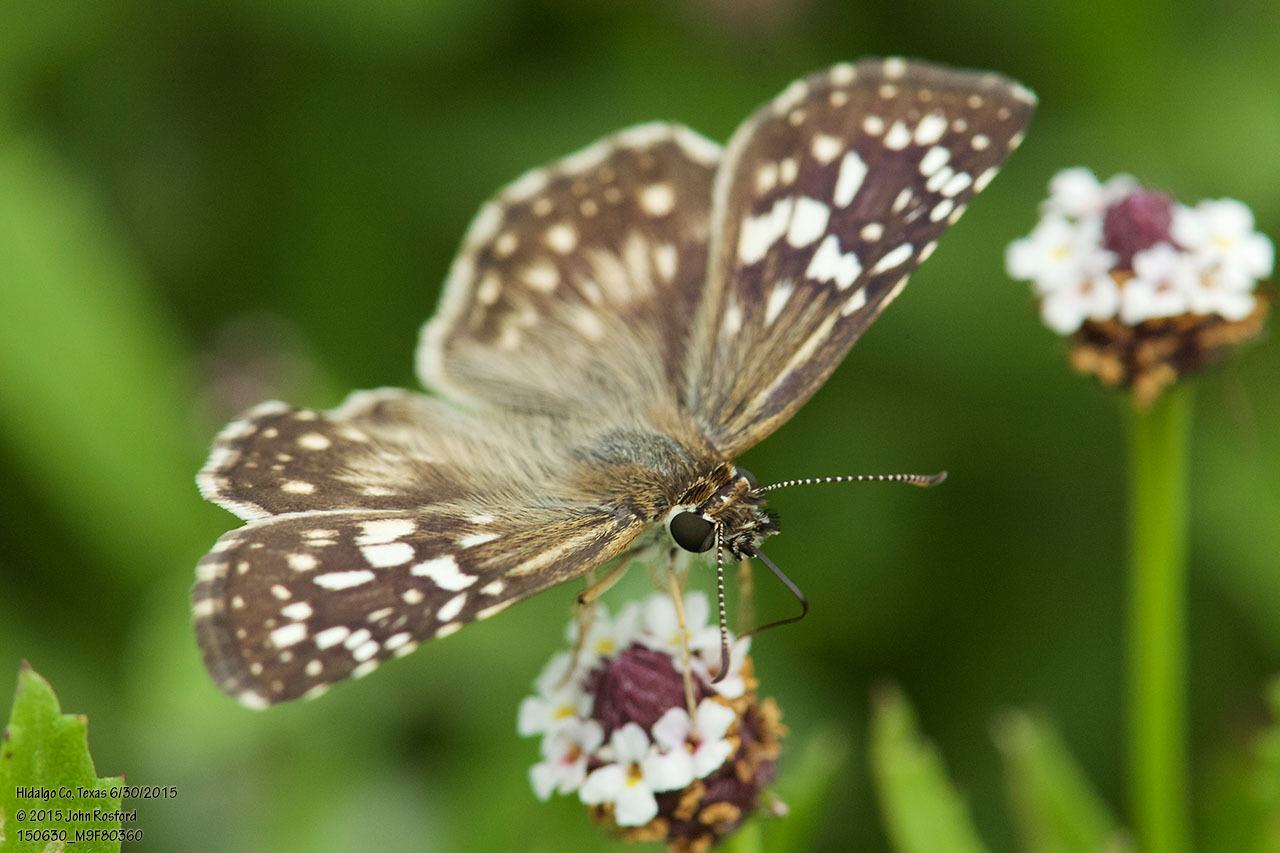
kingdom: Animalia
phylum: Arthropoda
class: Insecta
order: Lepidoptera
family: Hesperiidae
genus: Pyrgus
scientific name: Pyrgus oileus
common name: Tropical checkered-skipper
